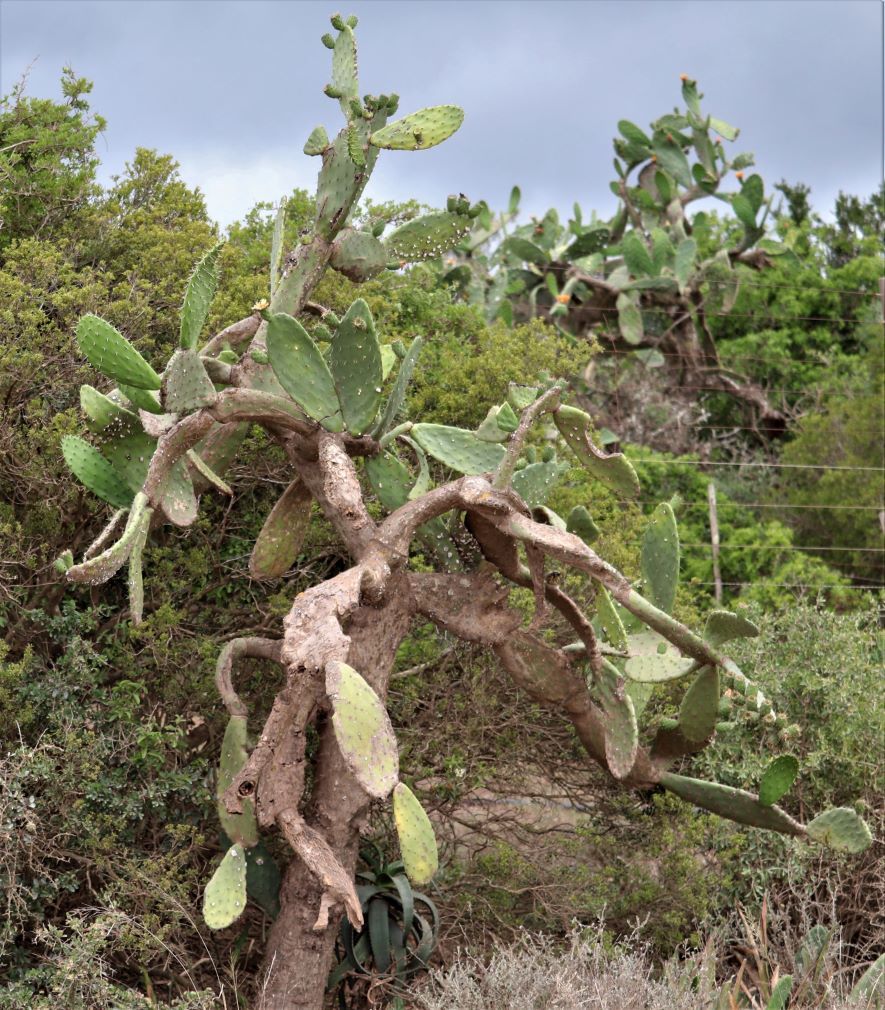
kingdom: Plantae
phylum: Tracheophyta
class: Magnoliopsida
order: Caryophyllales
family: Cactaceae
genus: Opuntia
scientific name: Opuntia ficus-indica
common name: Barbary fig
